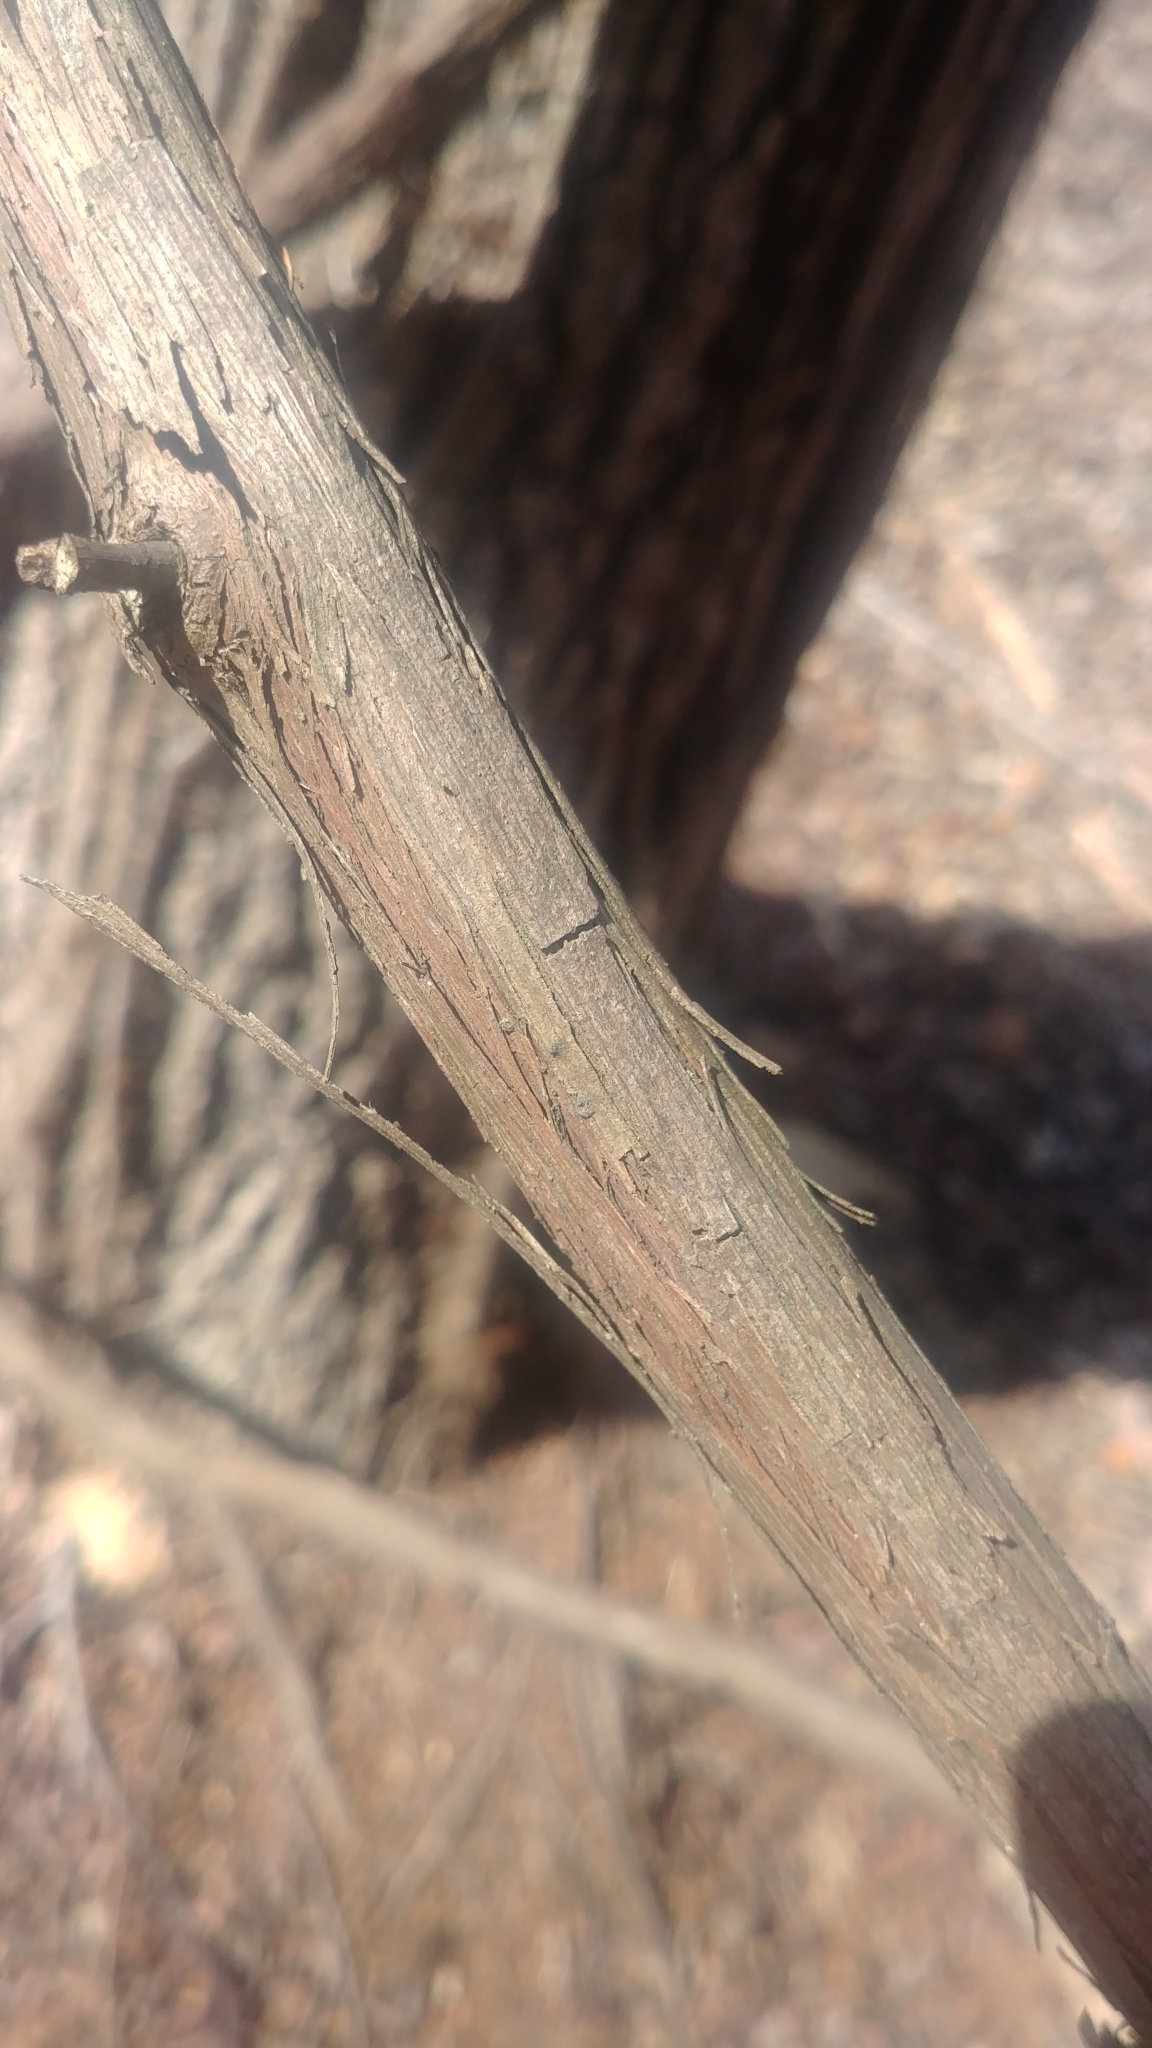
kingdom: Plantae
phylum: Tracheophyta
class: Magnoliopsida
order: Vitales
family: Vitaceae
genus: Vitis
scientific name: Vitis
